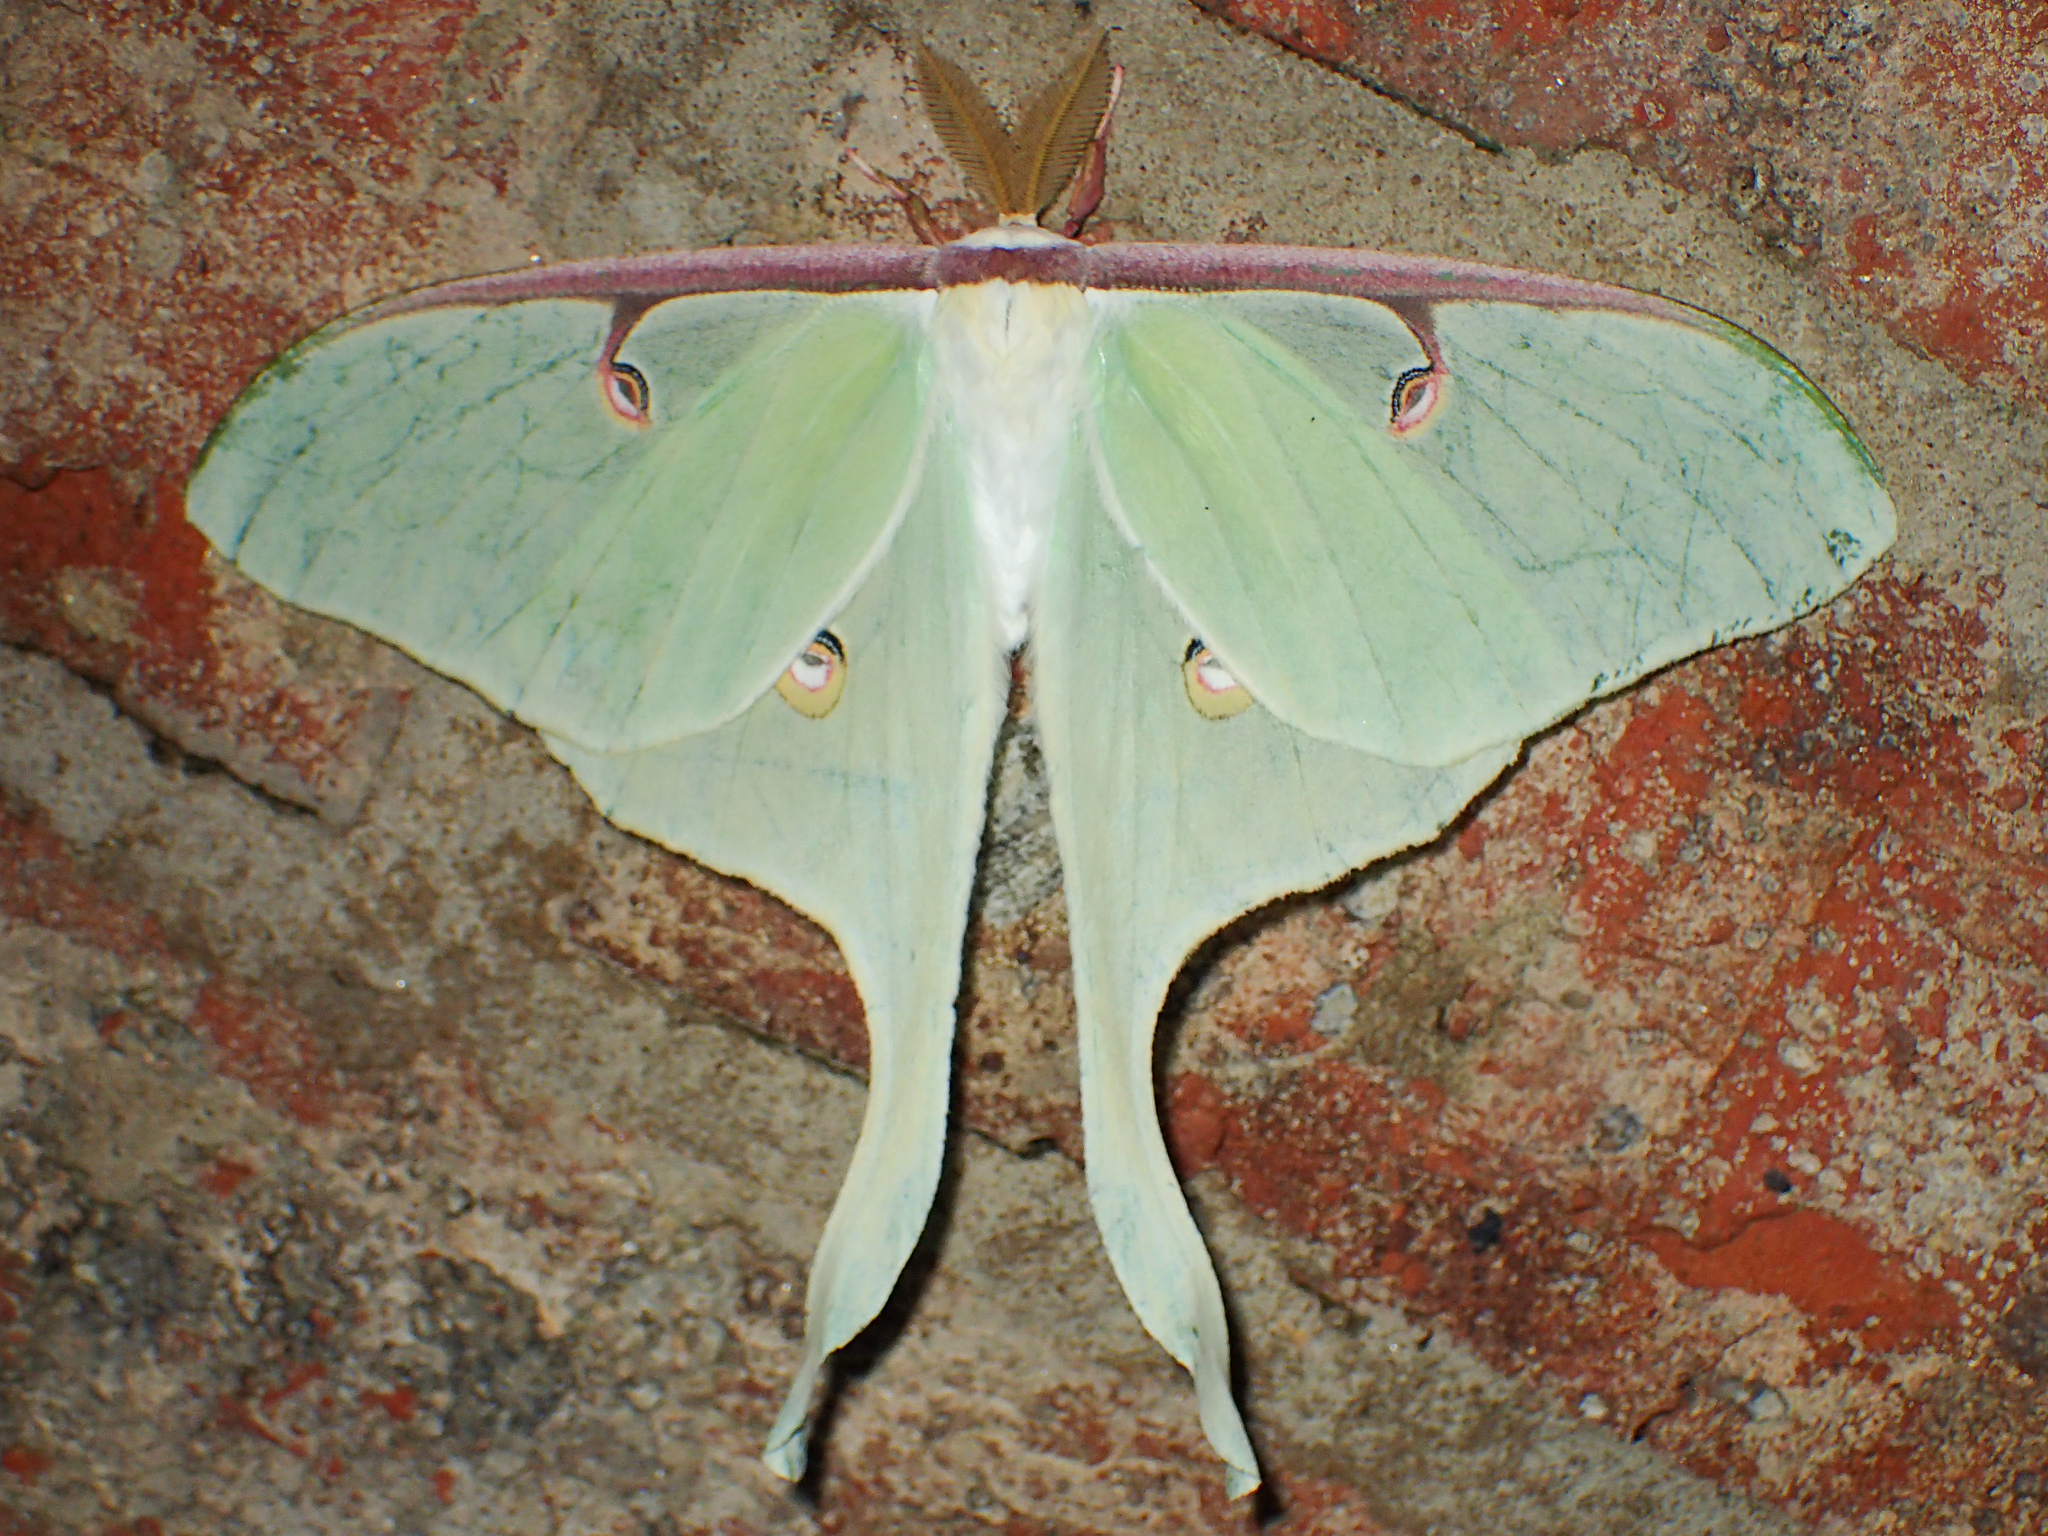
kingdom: Animalia
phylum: Arthropoda
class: Insecta
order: Lepidoptera
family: Saturniidae
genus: Actias
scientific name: Actias luna
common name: Luna moth
